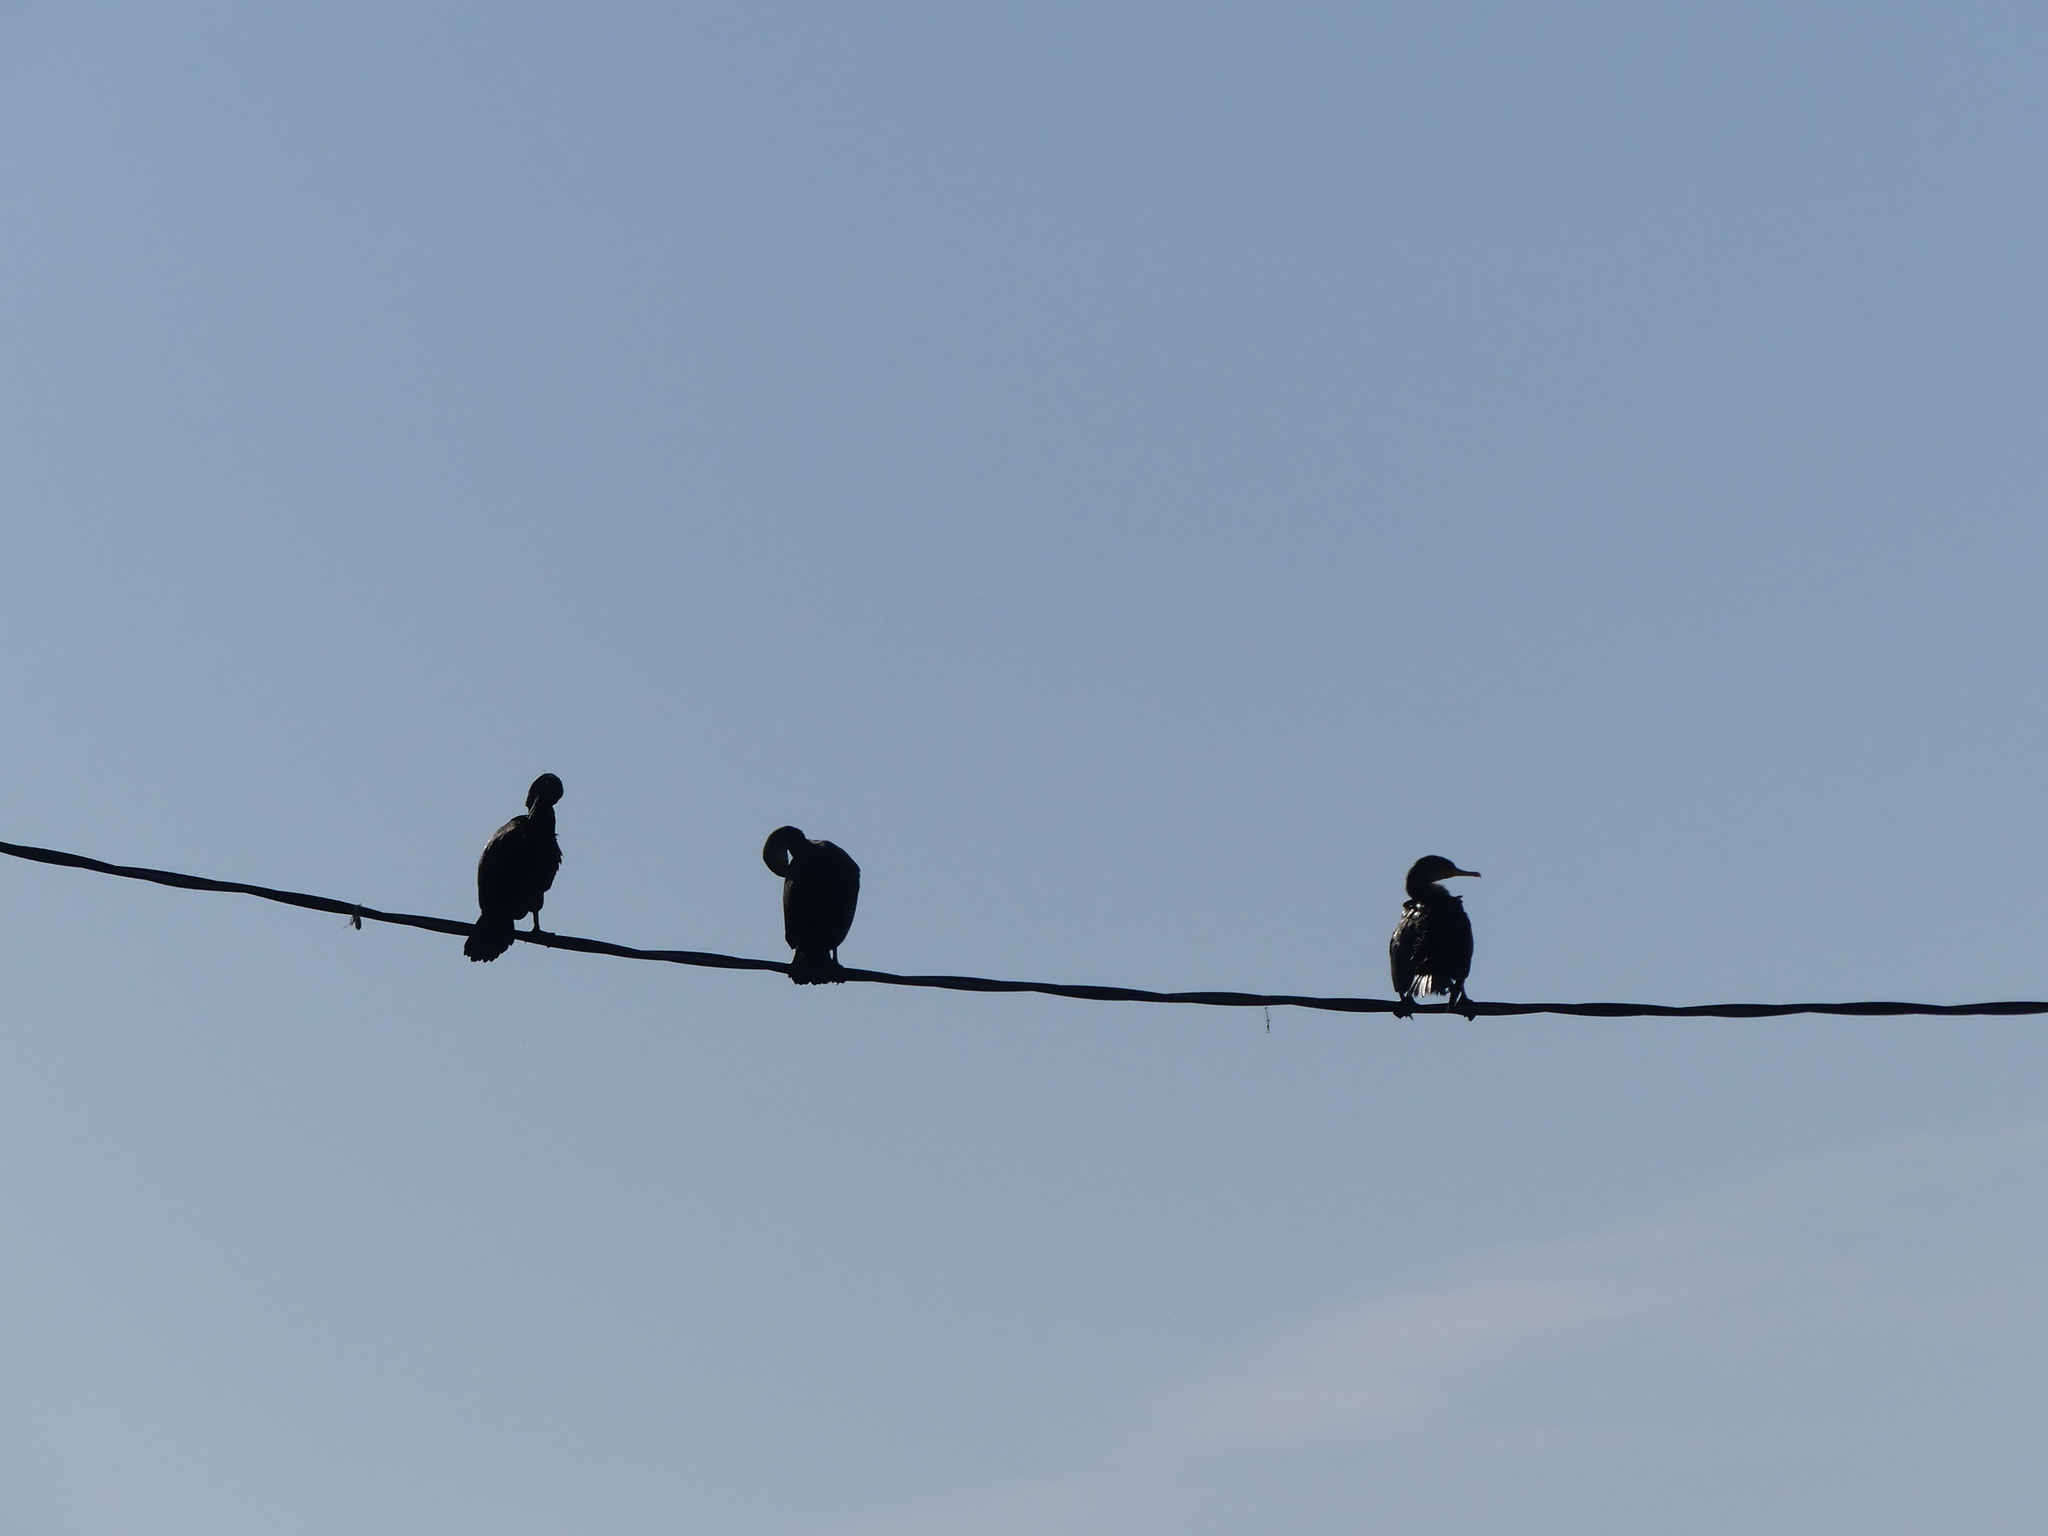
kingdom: Animalia
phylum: Chordata
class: Aves
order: Suliformes
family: Phalacrocoracidae
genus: Phalacrocorax
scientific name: Phalacrocorax auritus
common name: Double-crested cormorant
